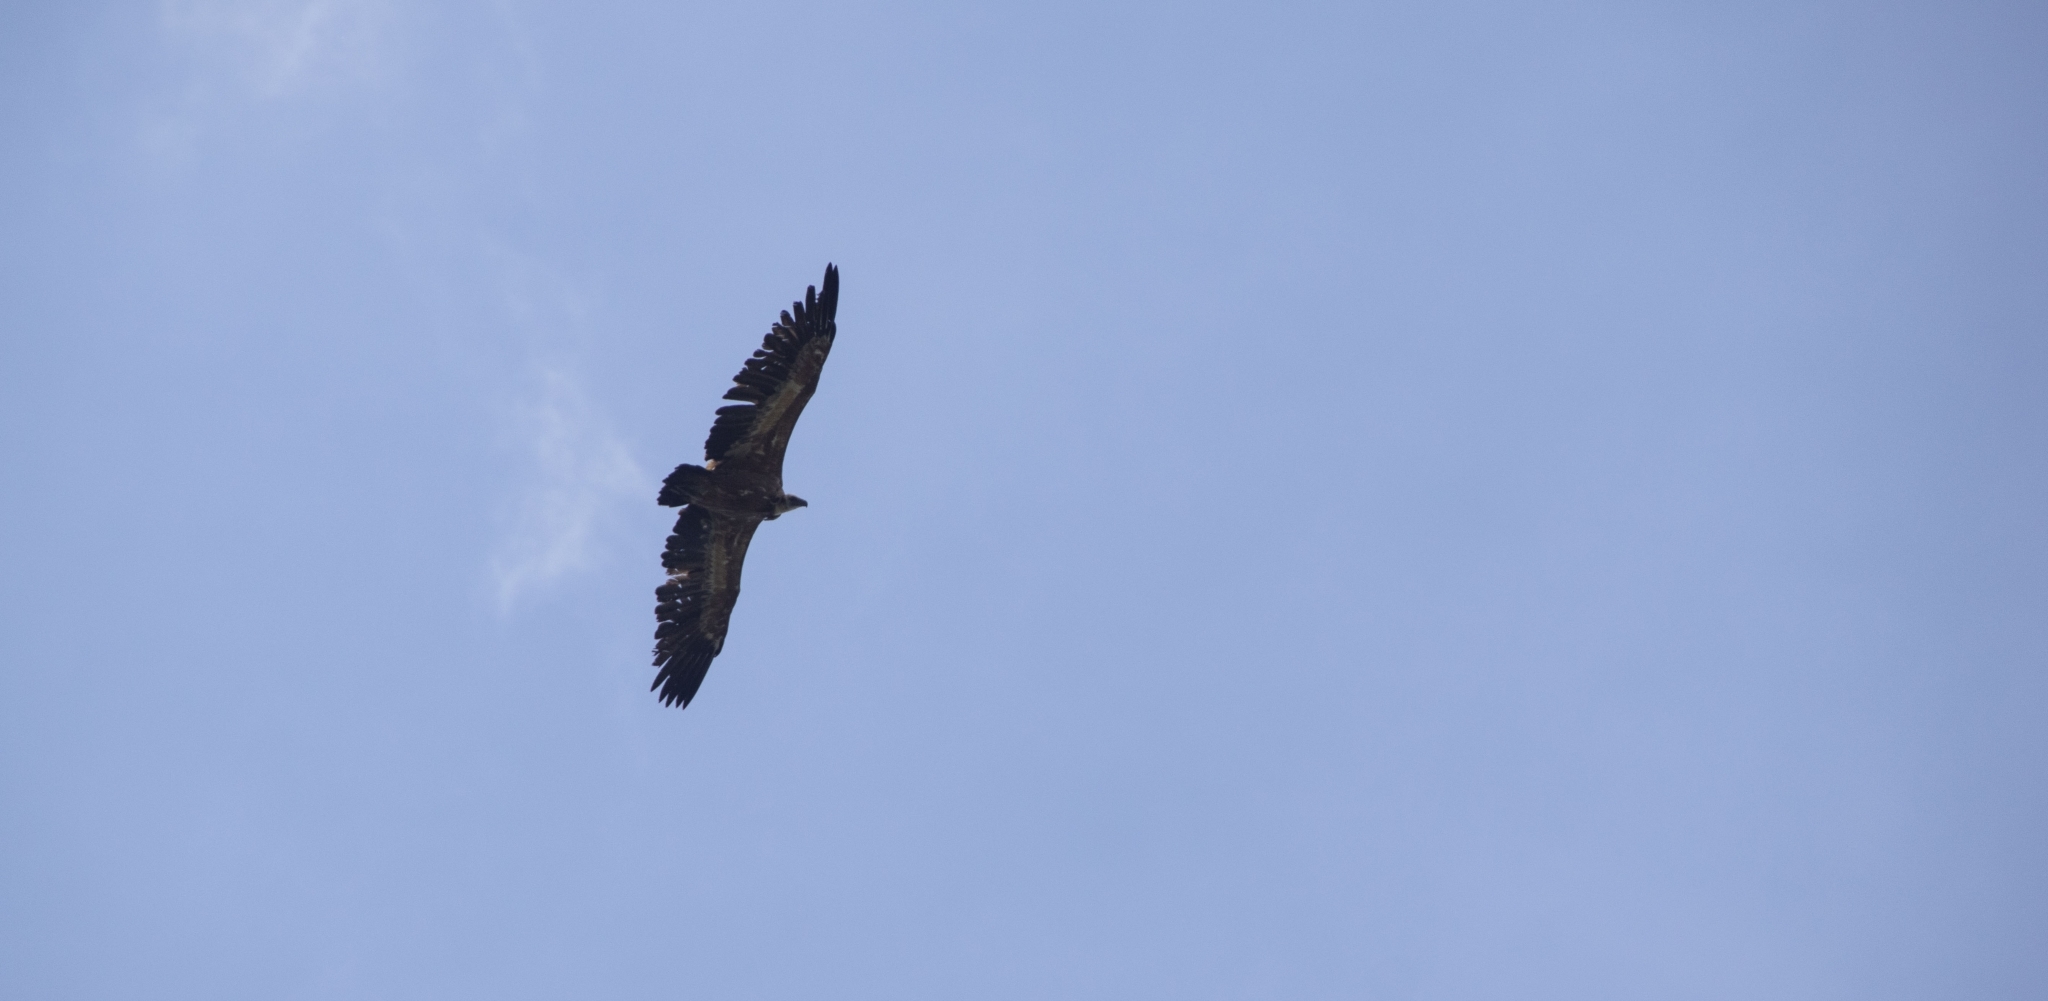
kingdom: Animalia
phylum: Chordata
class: Aves
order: Accipitriformes
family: Accipitridae
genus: Gyps
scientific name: Gyps fulvus
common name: Griffon vulture
